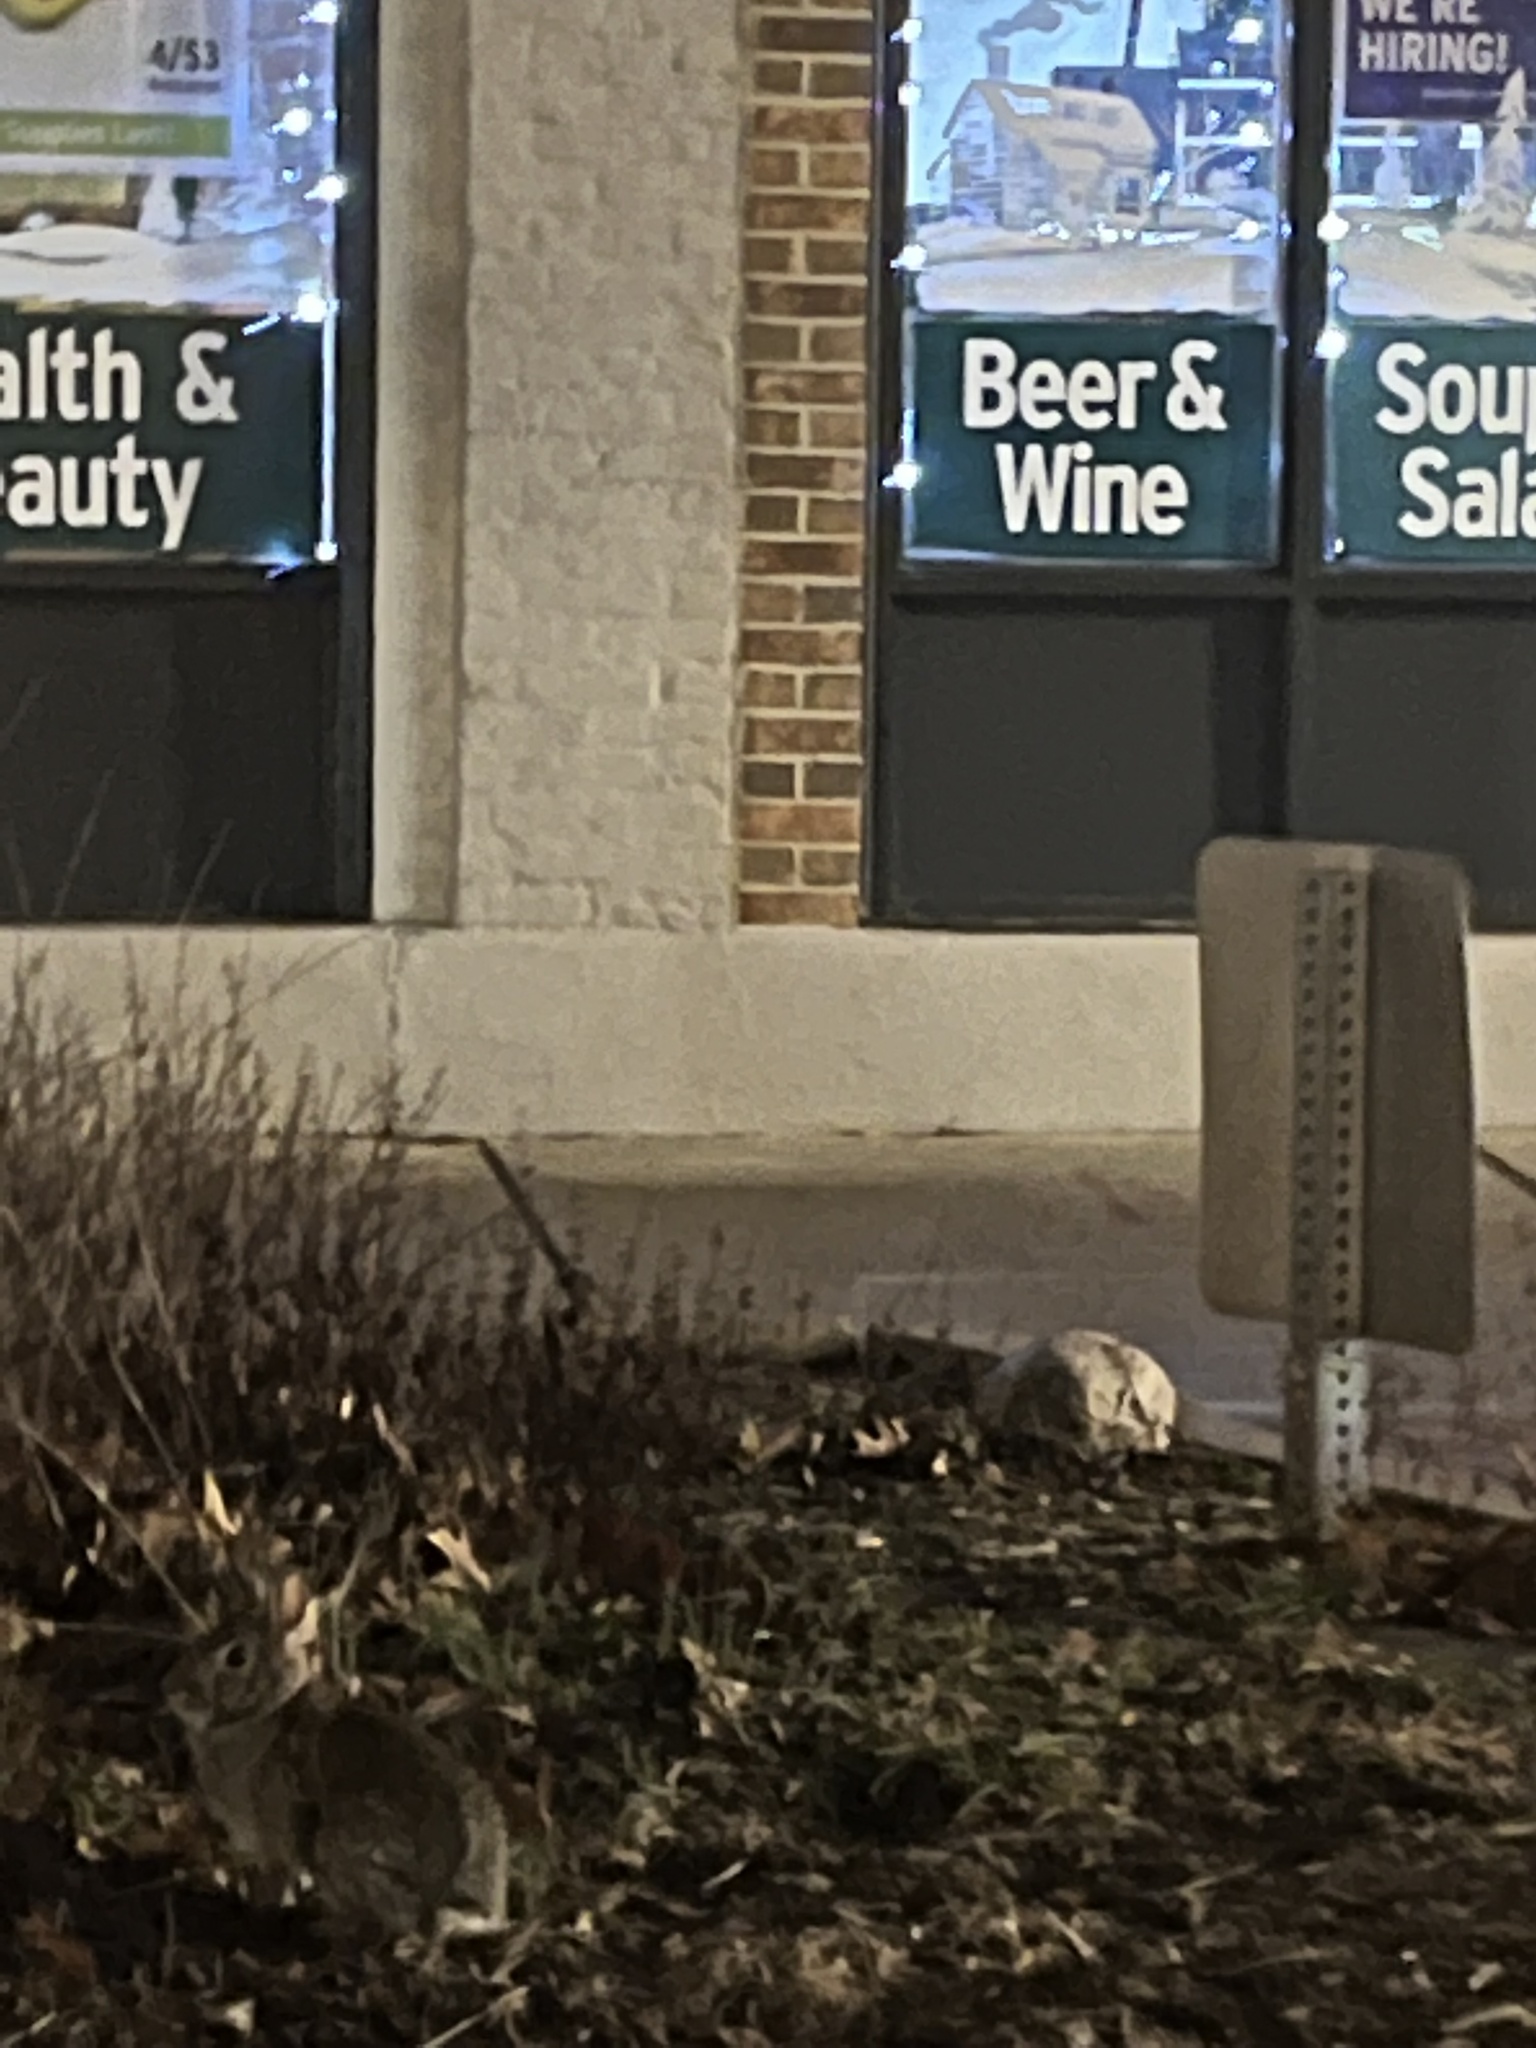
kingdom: Animalia
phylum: Chordata
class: Mammalia
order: Lagomorpha
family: Leporidae
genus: Sylvilagus
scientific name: Sylvilagus floridanus
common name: Eastern cottontail
